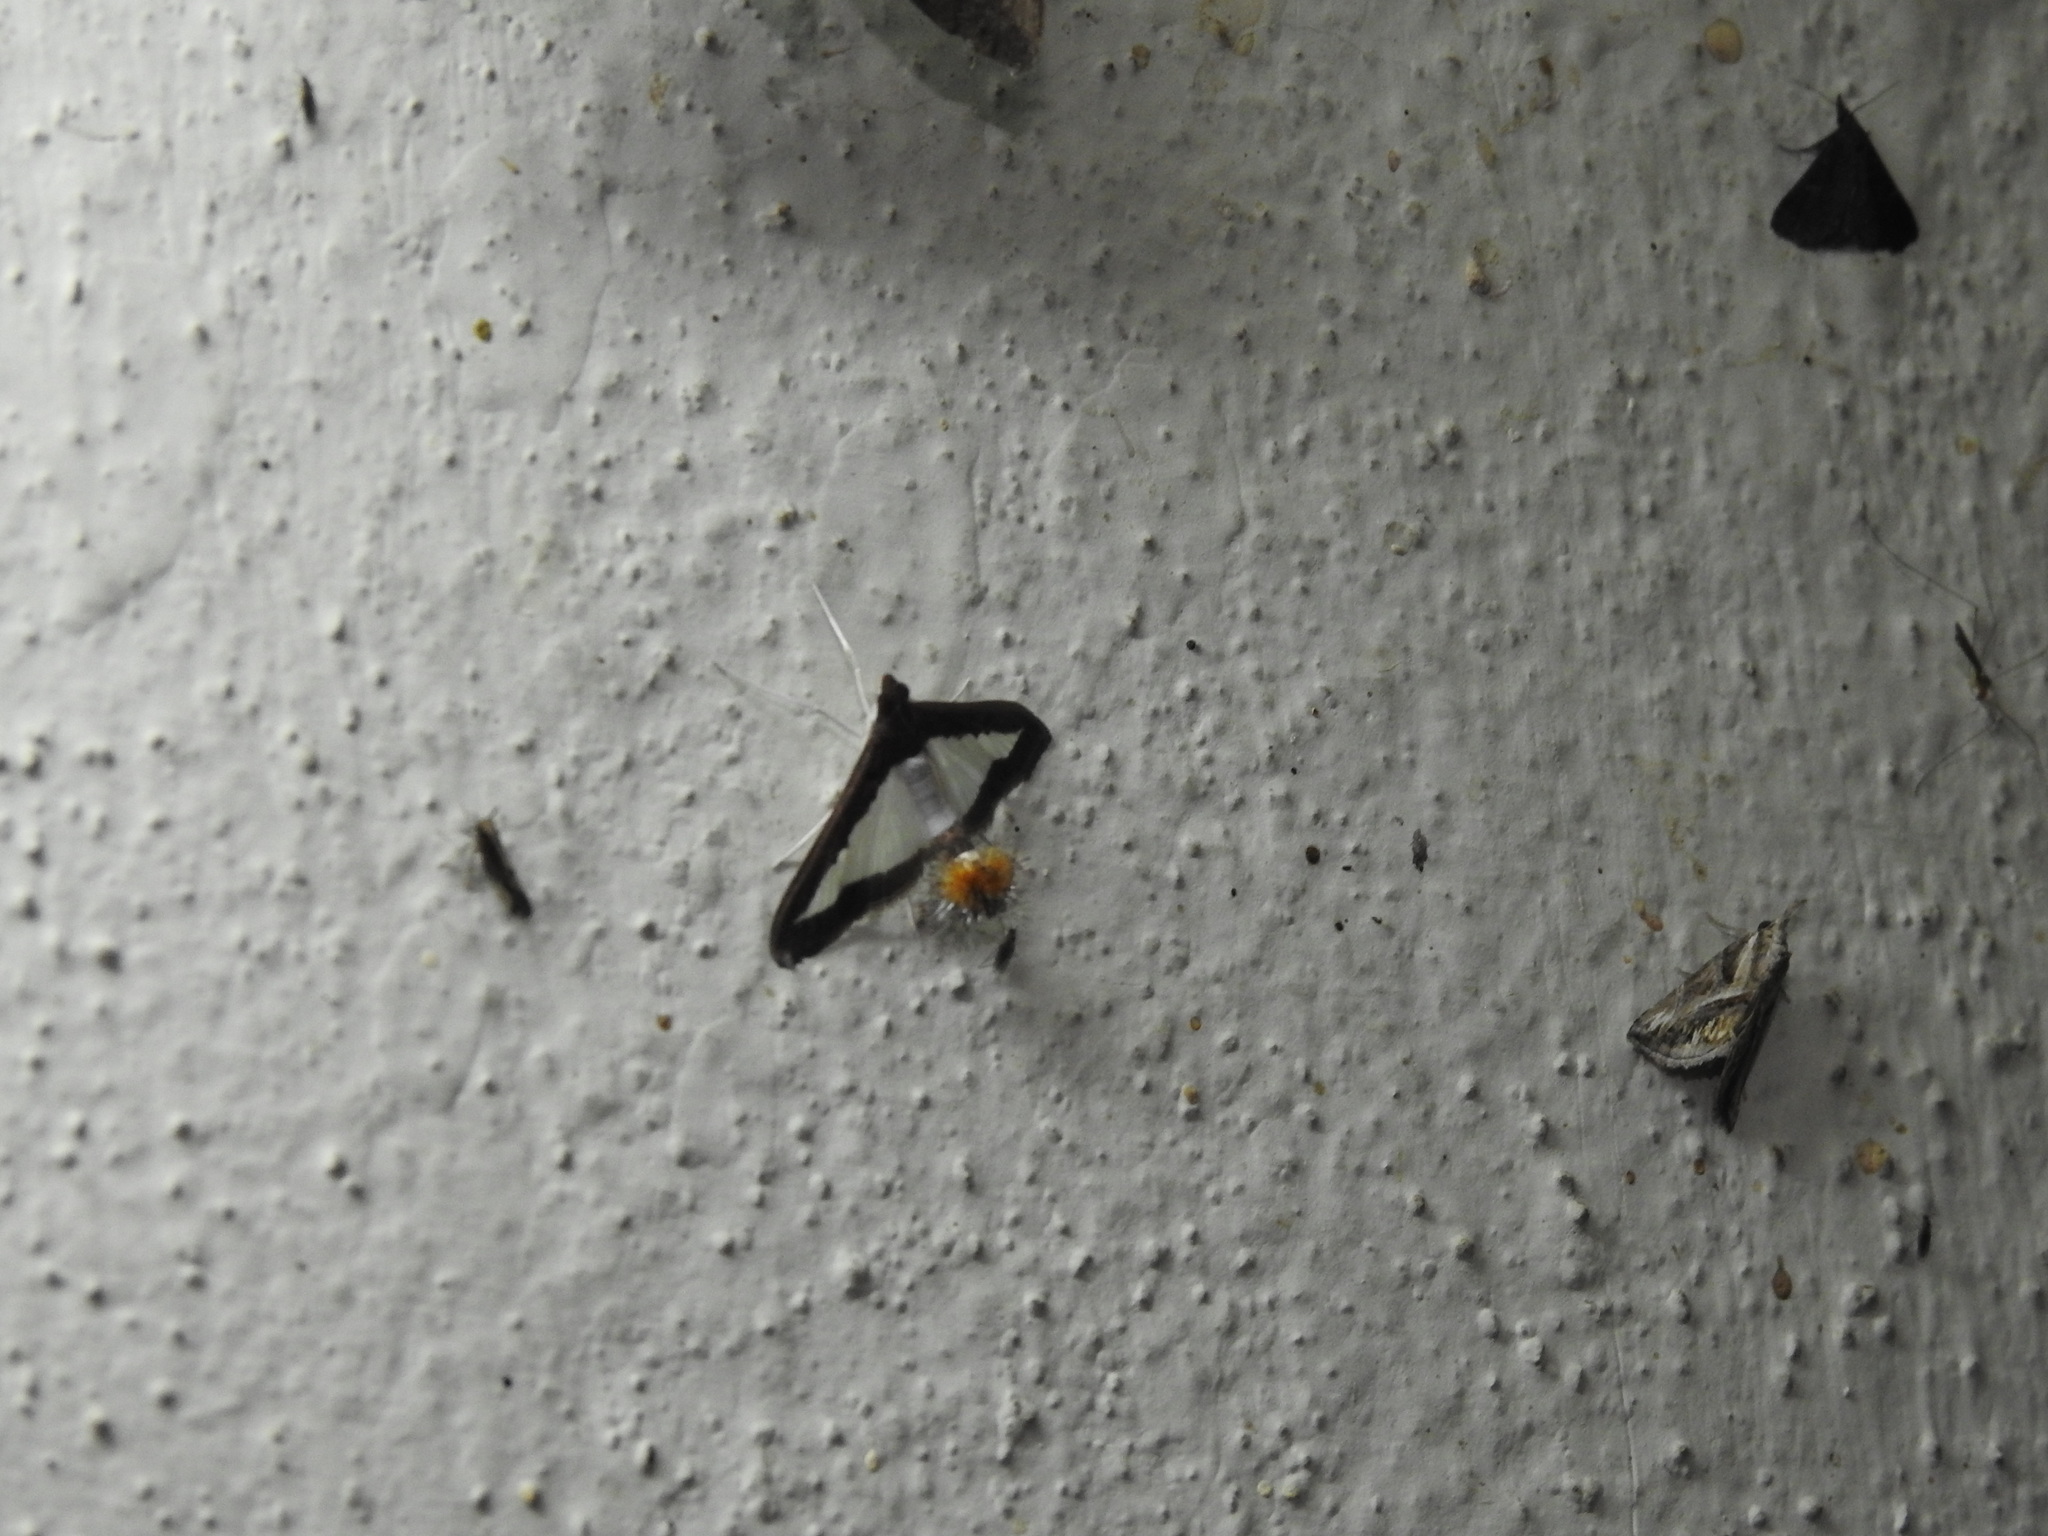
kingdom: Animalia
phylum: Arthropoda
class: Insecta
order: Lepidoptera
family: Crambidae
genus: Diaphania
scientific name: Diaphania indica
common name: Cucumber moth
